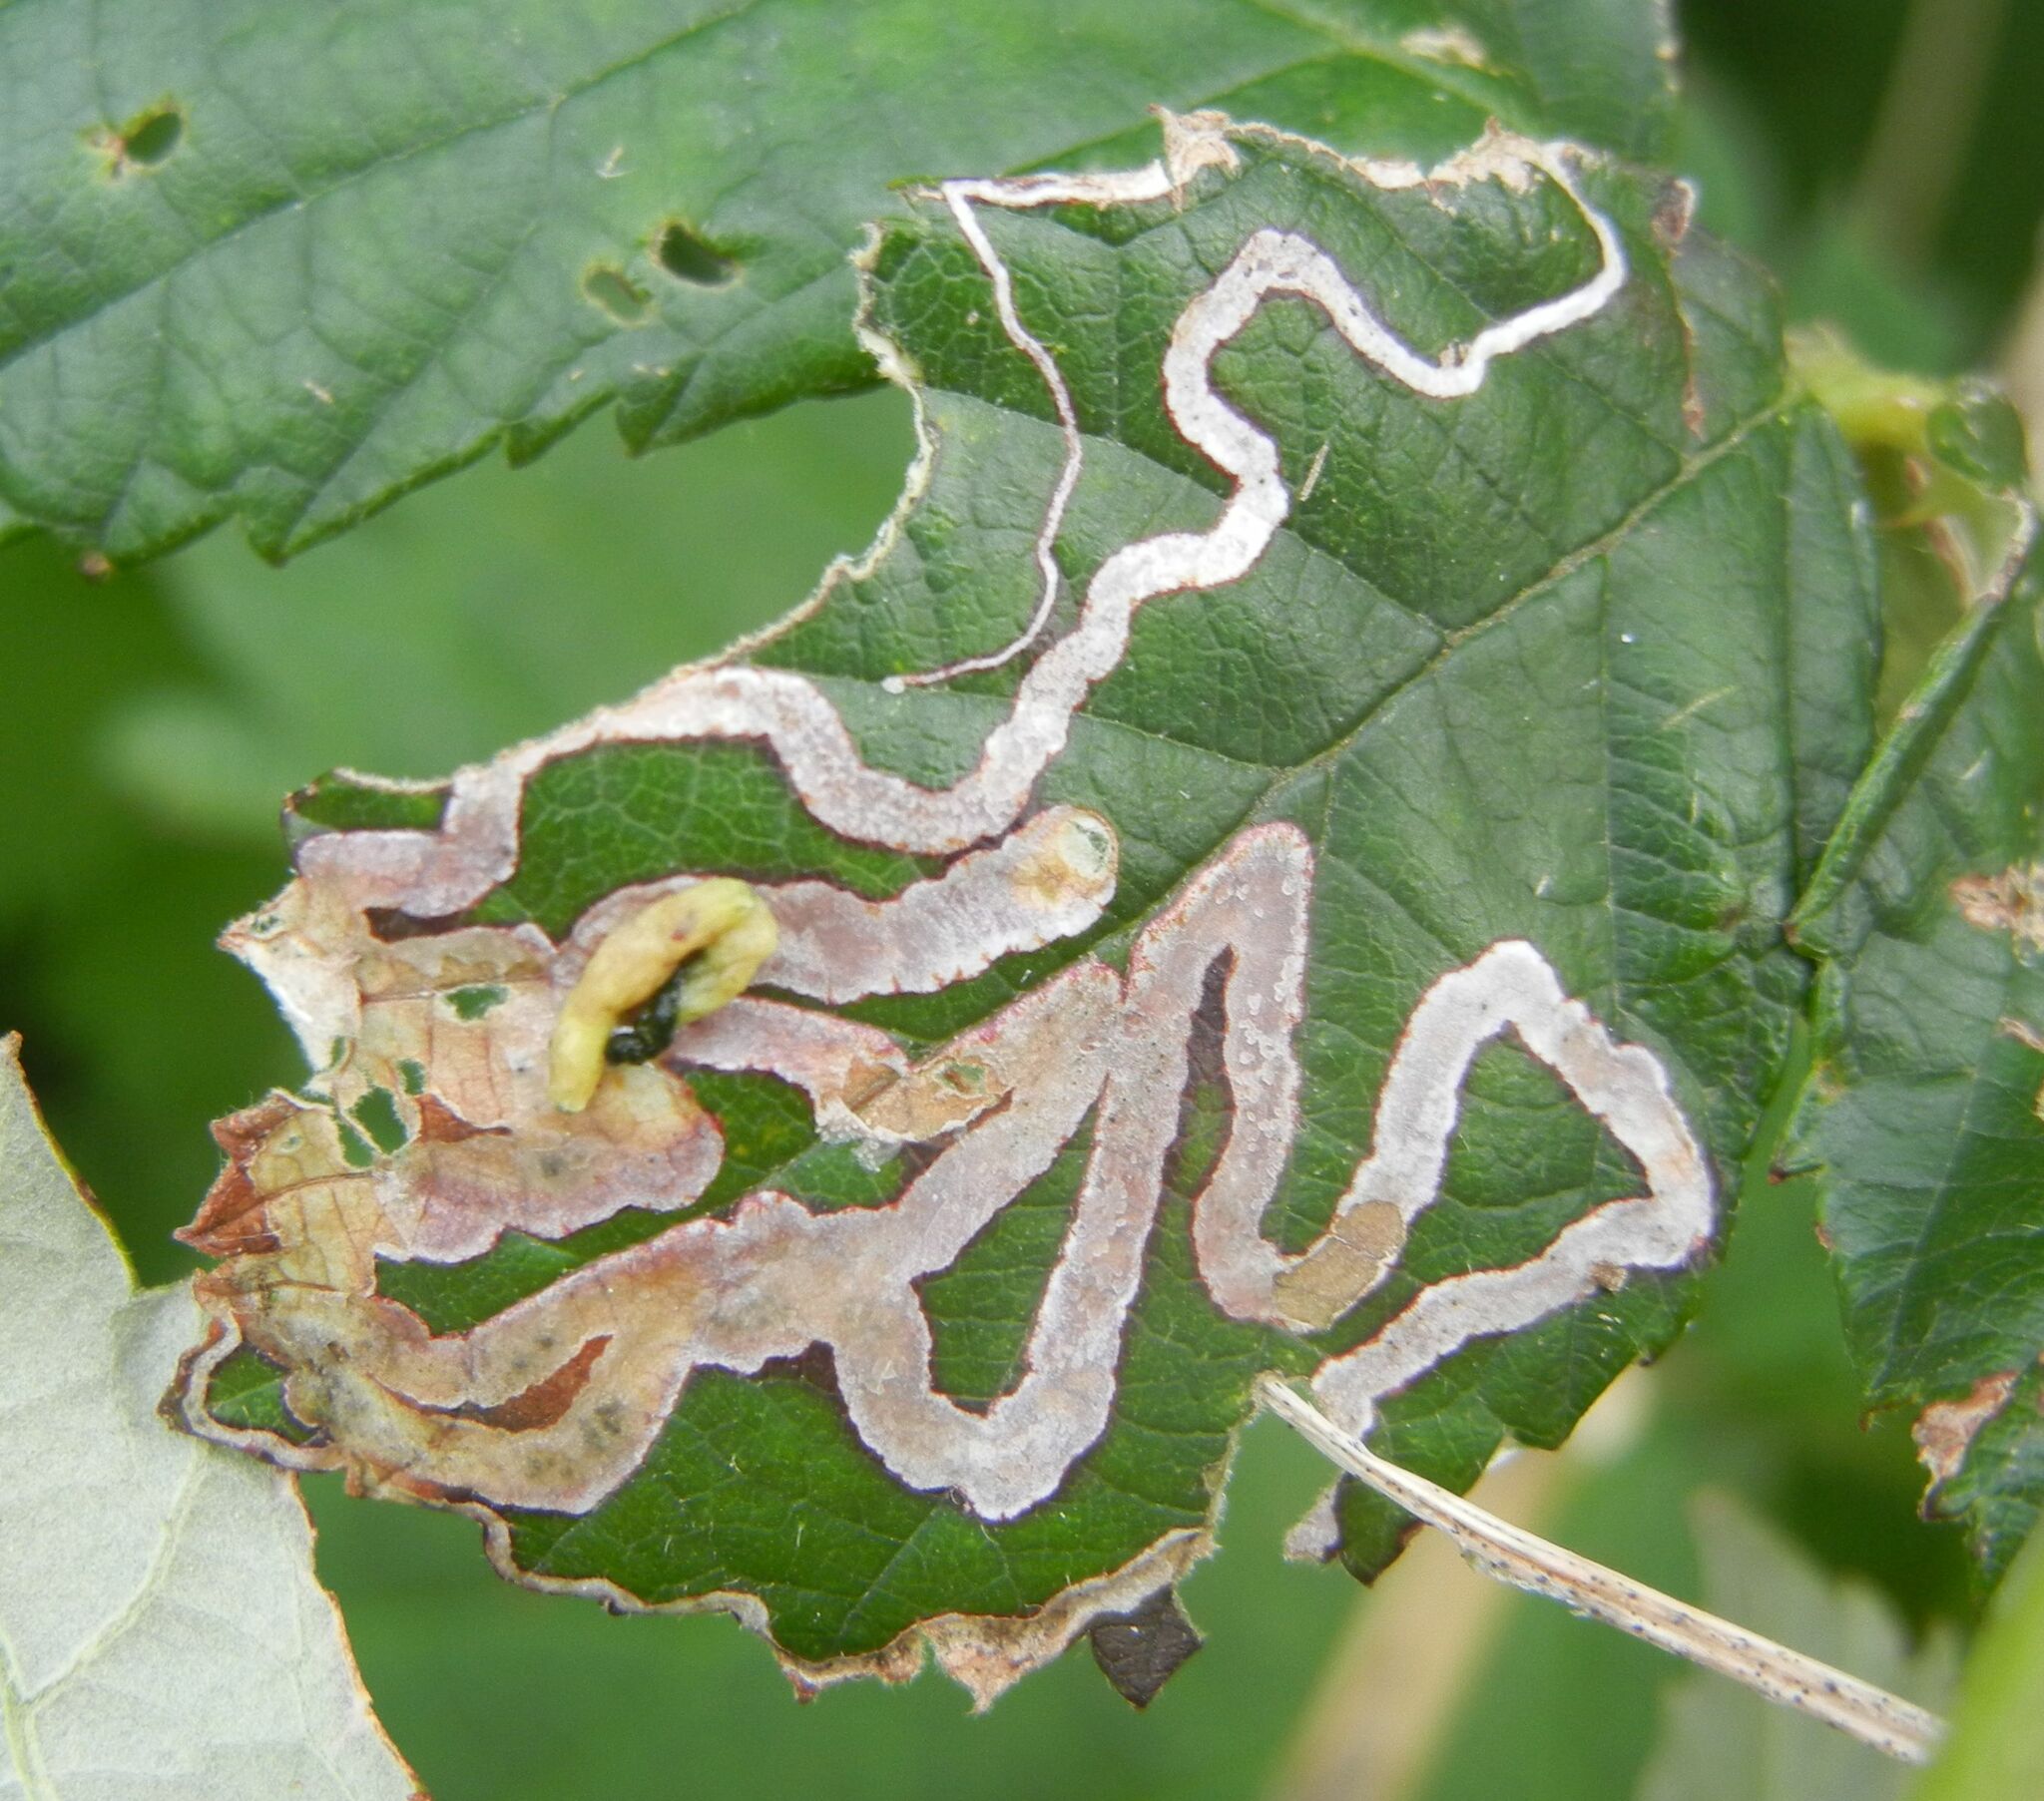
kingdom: Animalia
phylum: Arthropoda
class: Insecta
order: Lepidoptera
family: Nepticulidae
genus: Stigmella
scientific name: Stigmella aurella
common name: Golden pigmy
